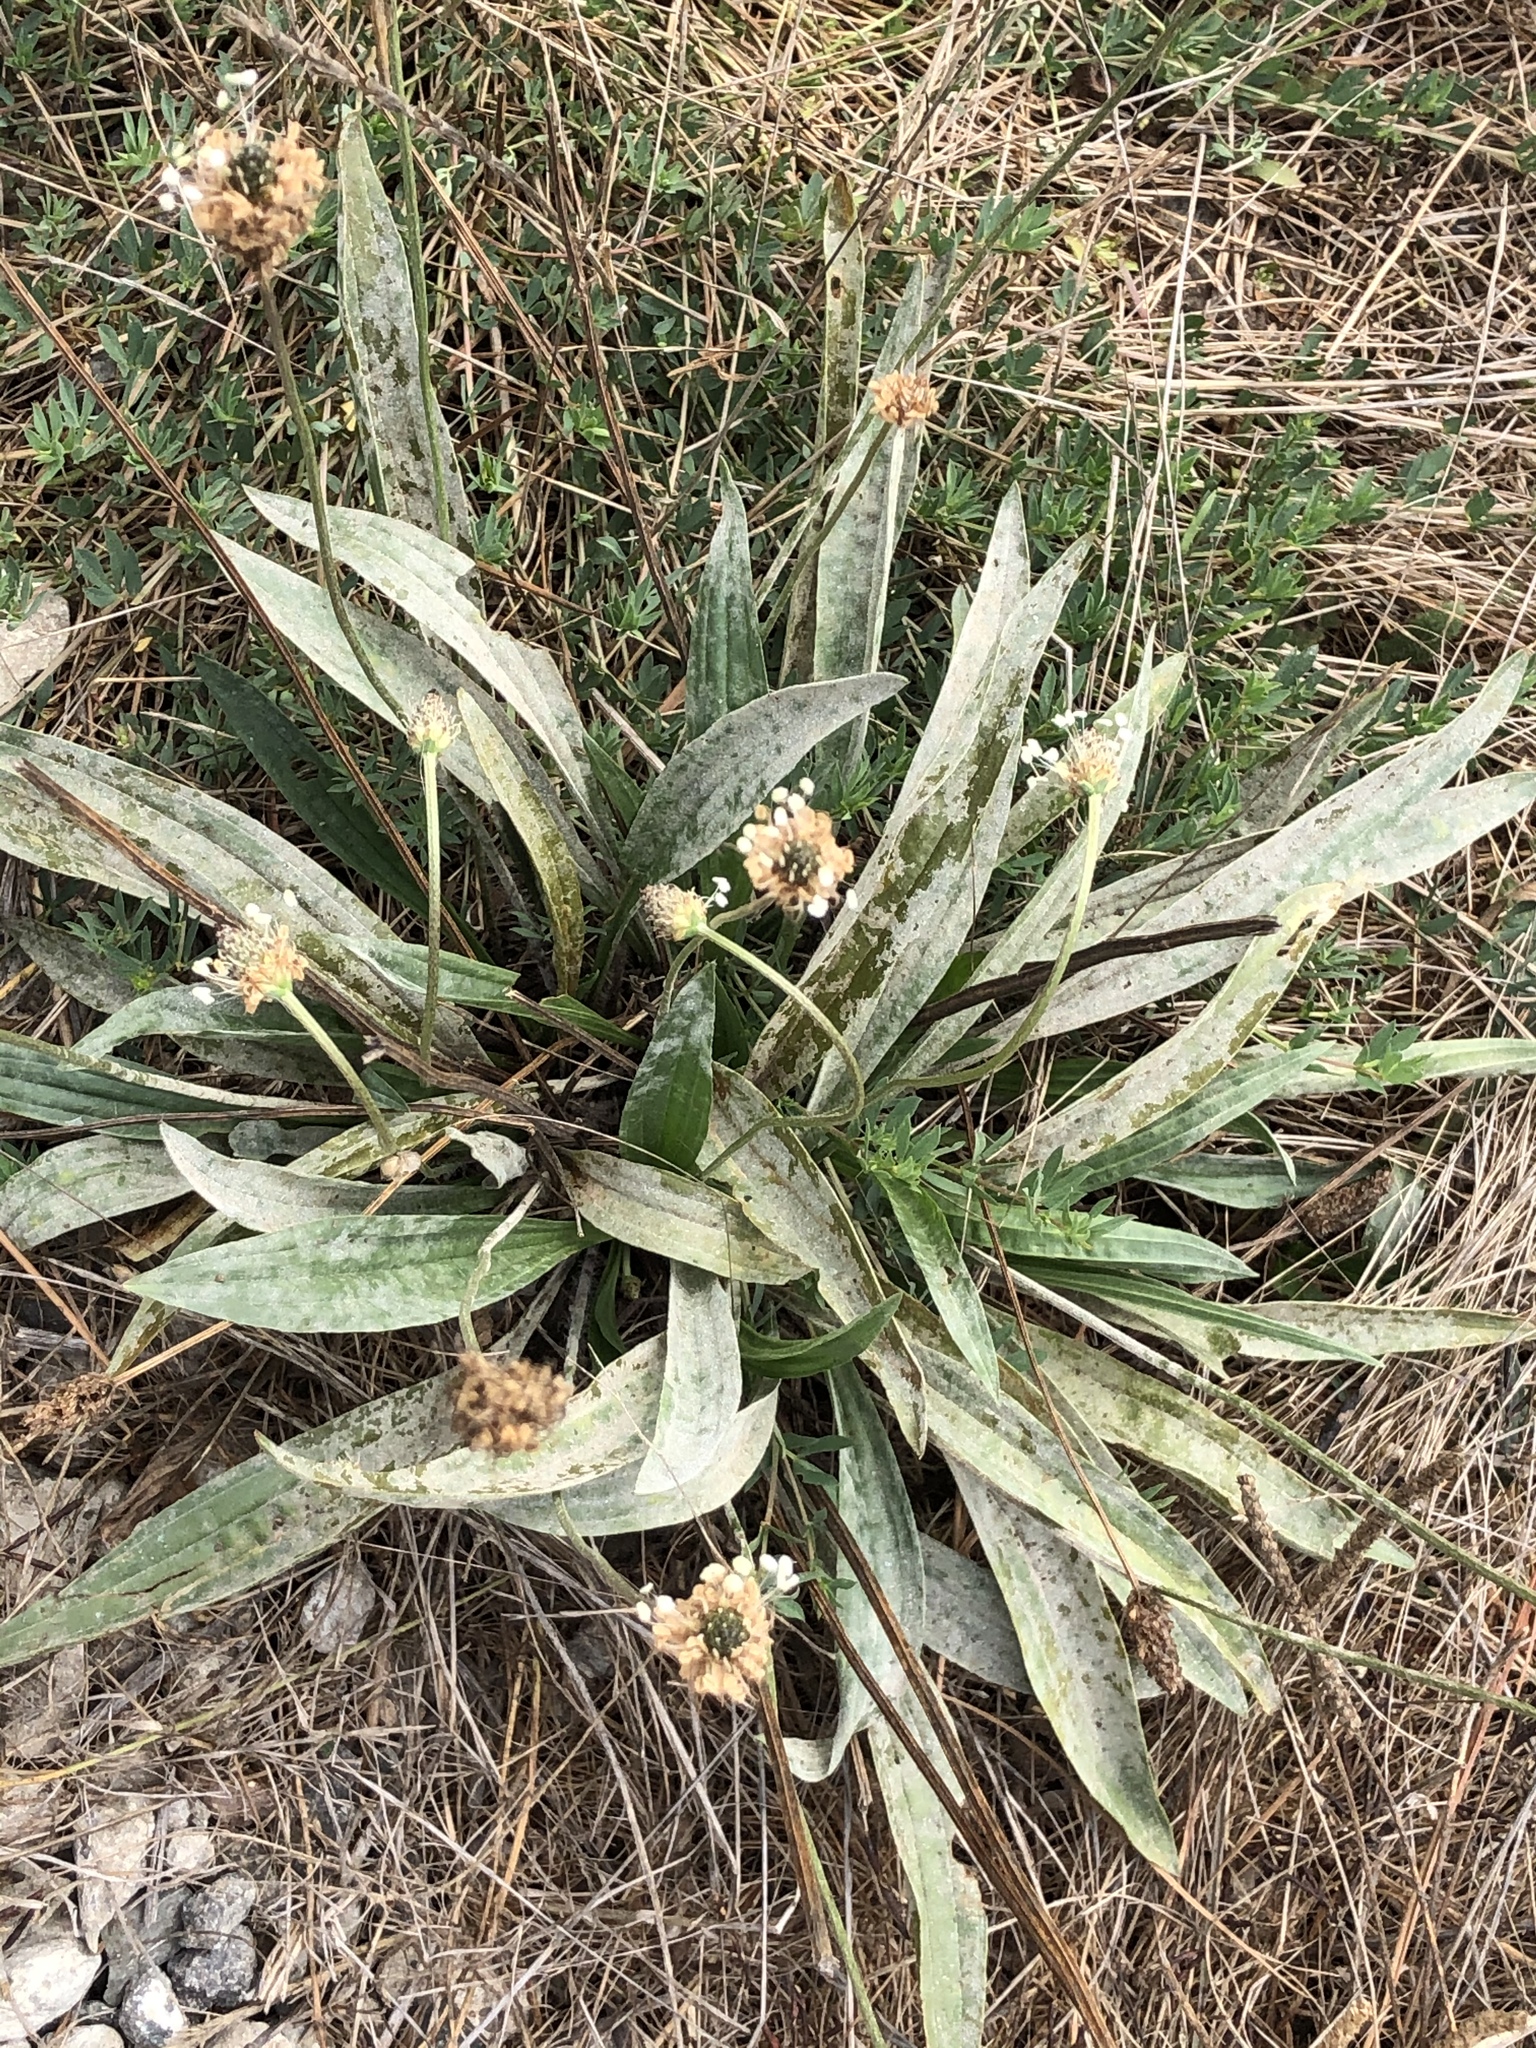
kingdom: Plantae
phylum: Tracheophyta
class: Magnoliopsida
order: Lamiales
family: Plantaginaceae
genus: Plantago
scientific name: Plantago lanceolata
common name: Ribwort plantain
